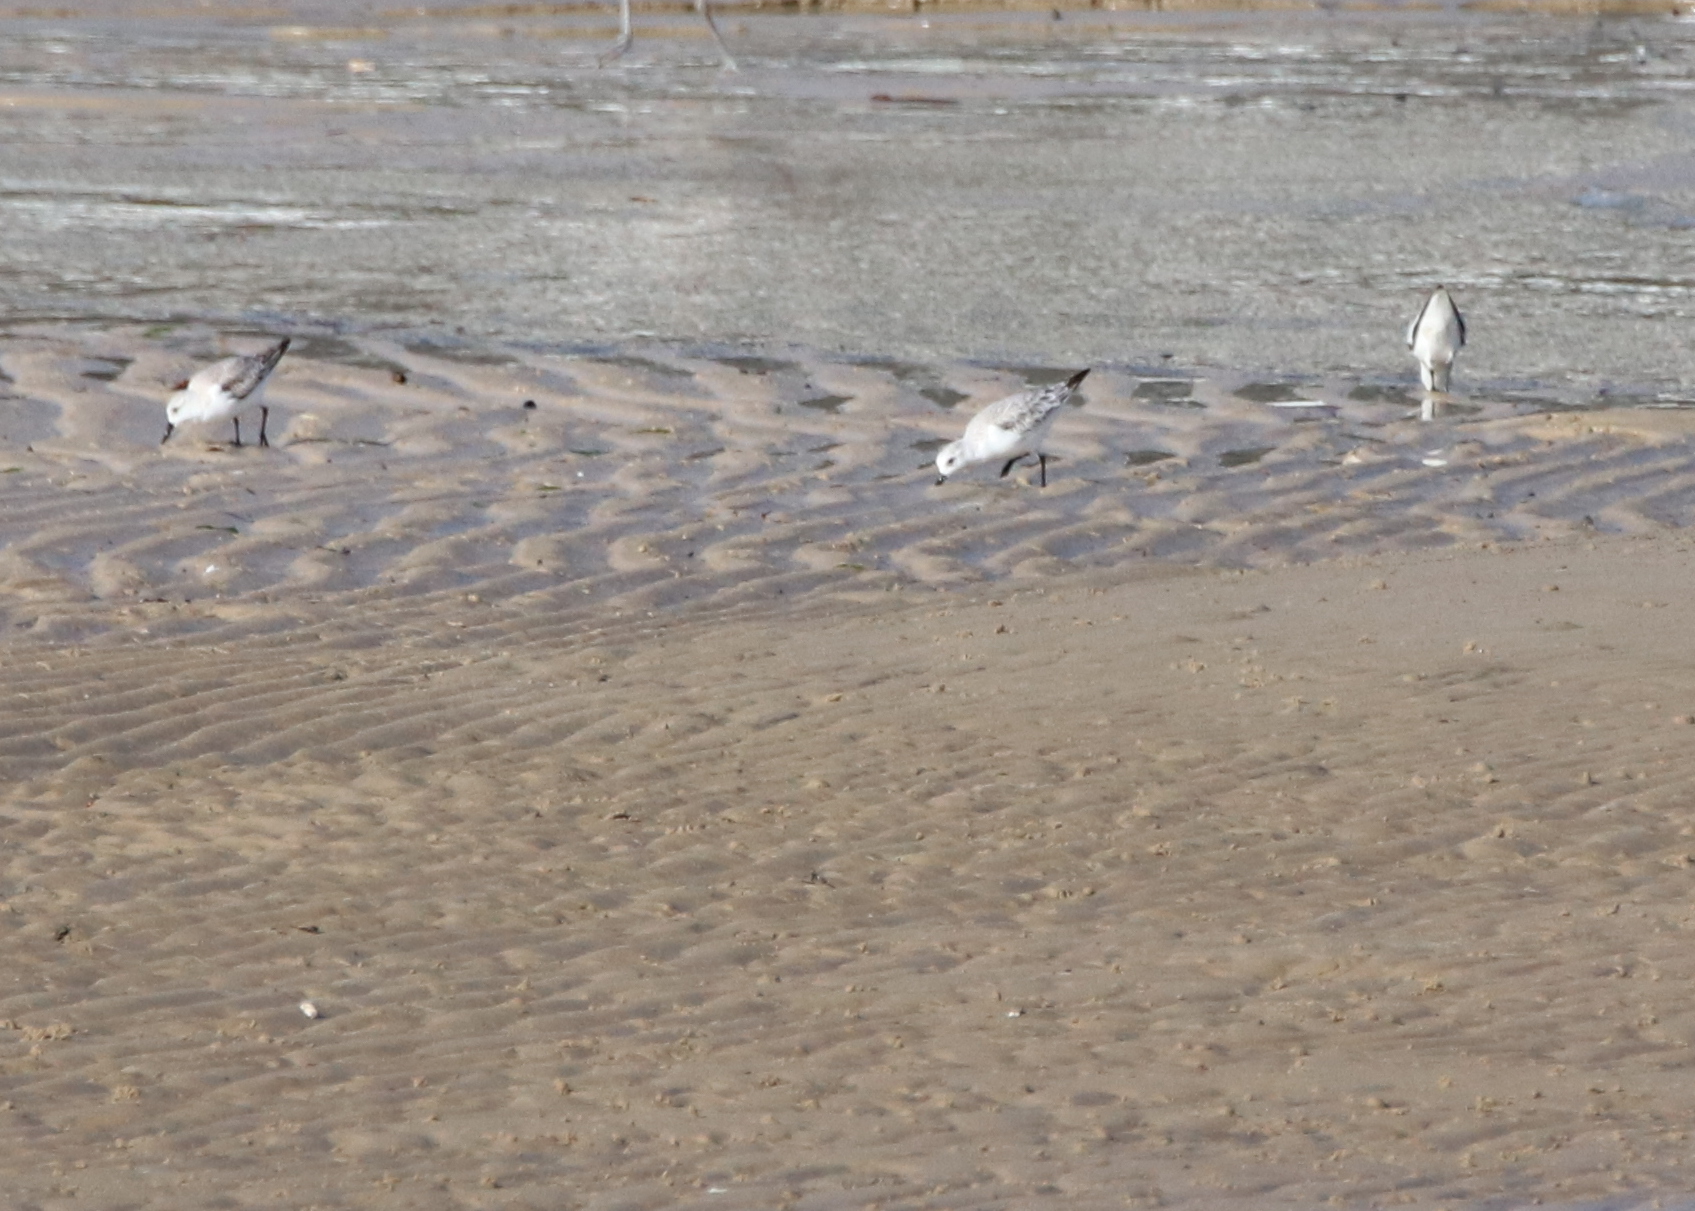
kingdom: Animalia
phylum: Chordata
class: Aves
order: Charadriiformes
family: Scolopacidae
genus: Calidris
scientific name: Calidris alba
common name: Sanderling
